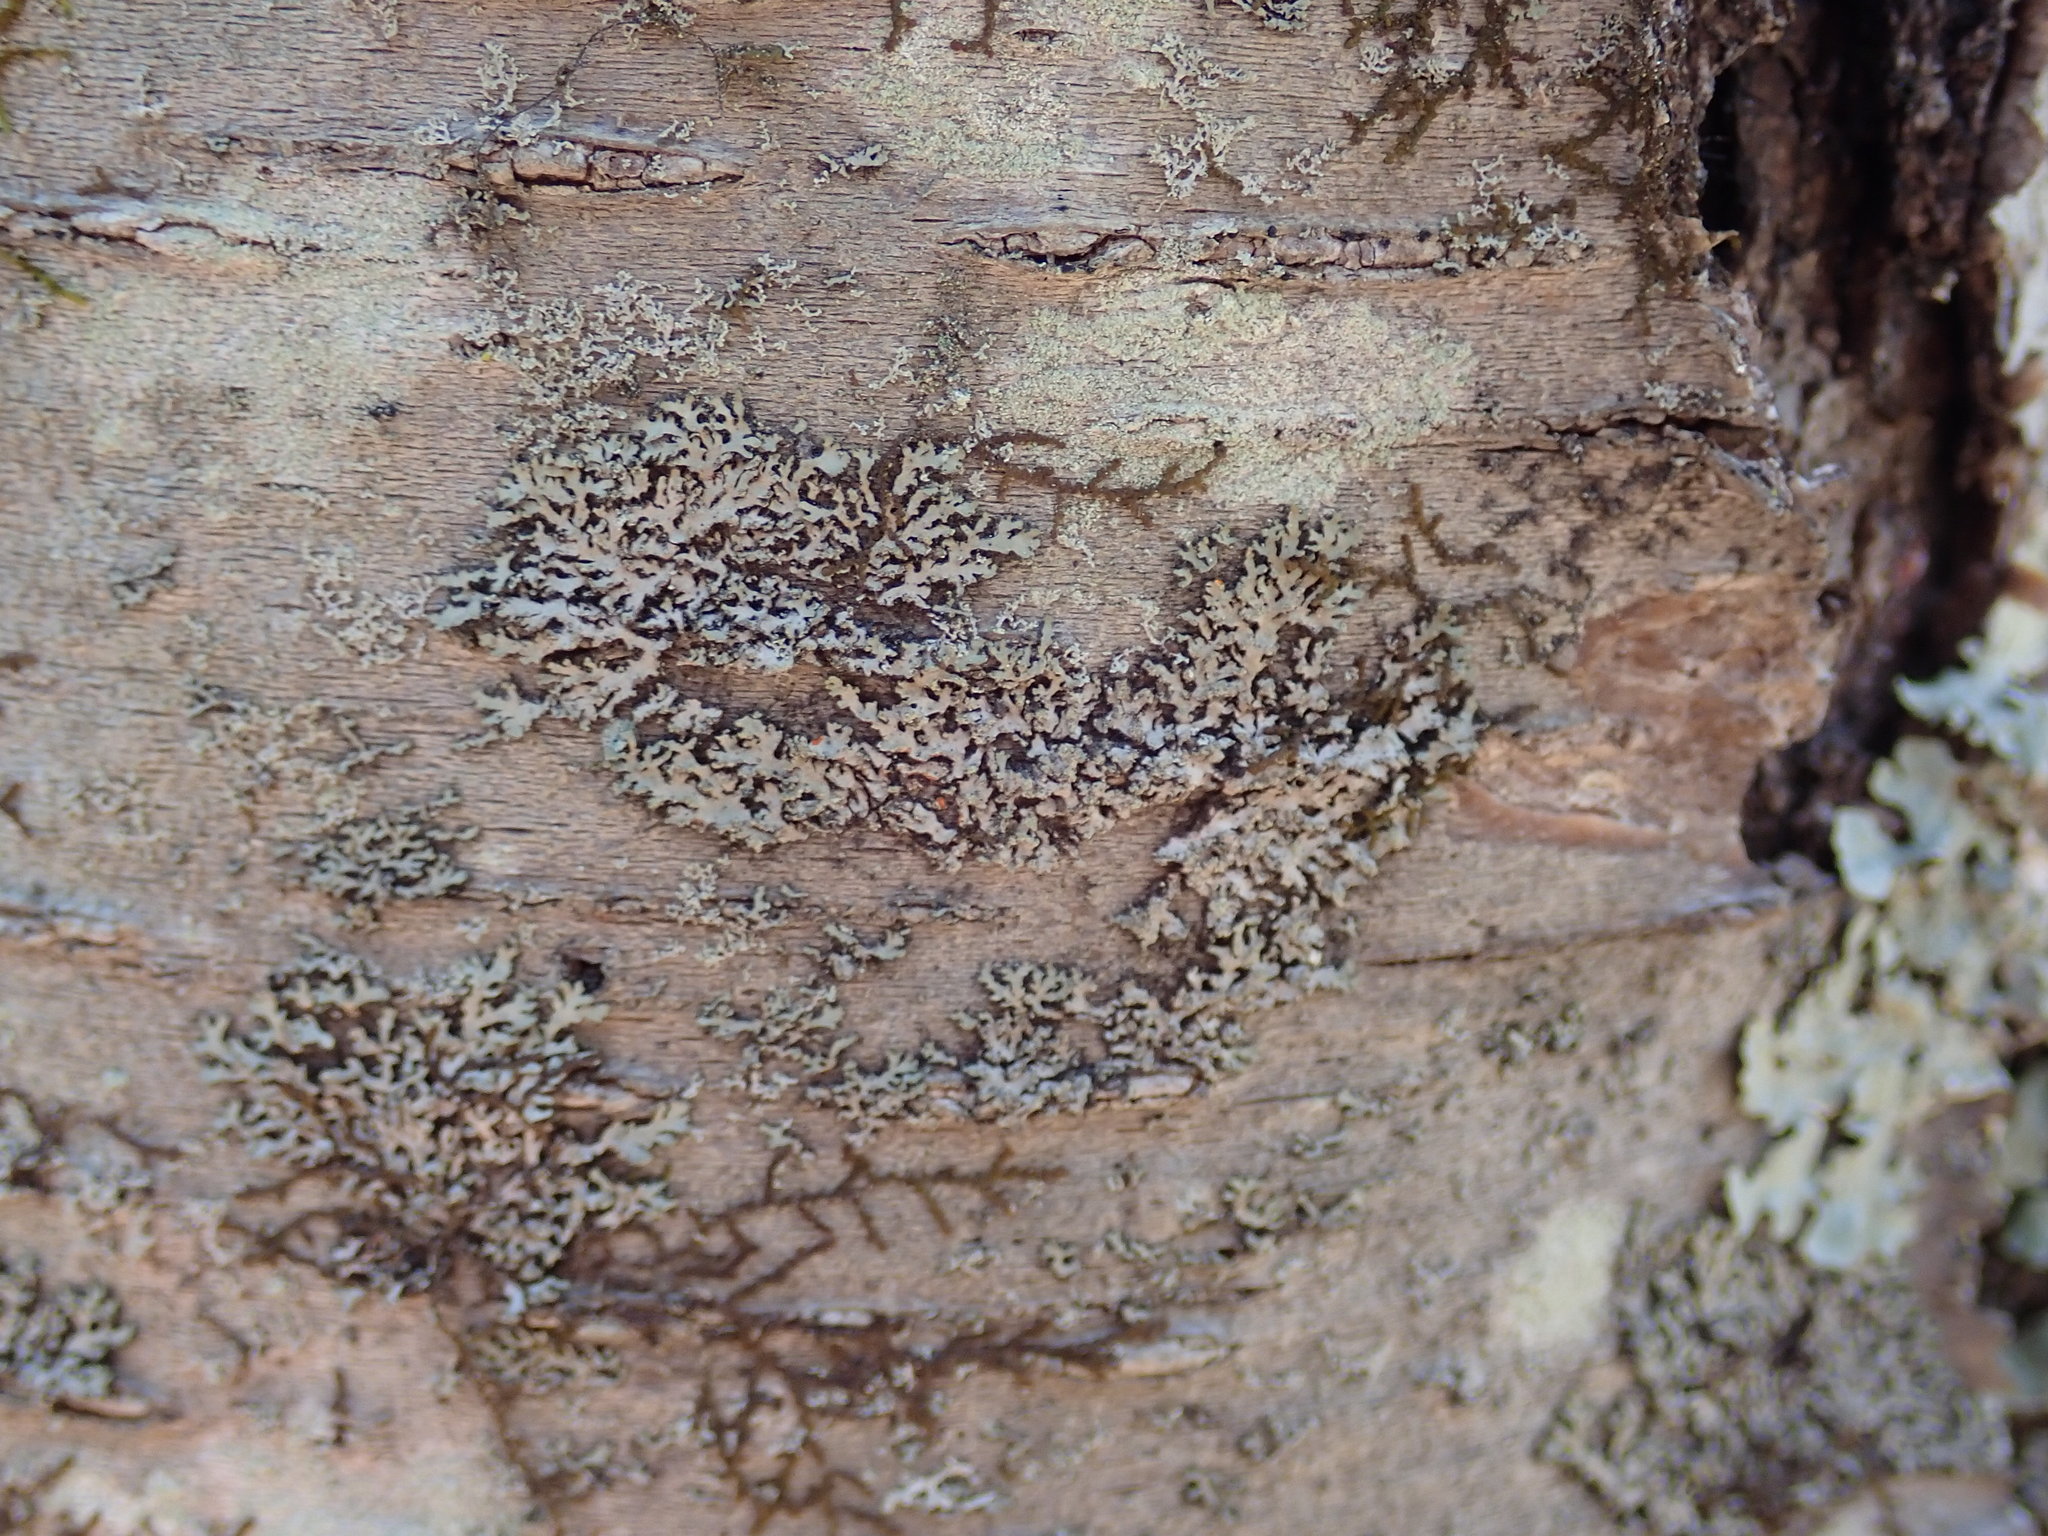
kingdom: Fungi
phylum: Ascomycota
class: Lecanoromycetes
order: Caliciales
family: Physciaceae
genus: Phaeophyscia
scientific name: Phaeophyscia rubropulchra
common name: Orange-cored shadow lichen
